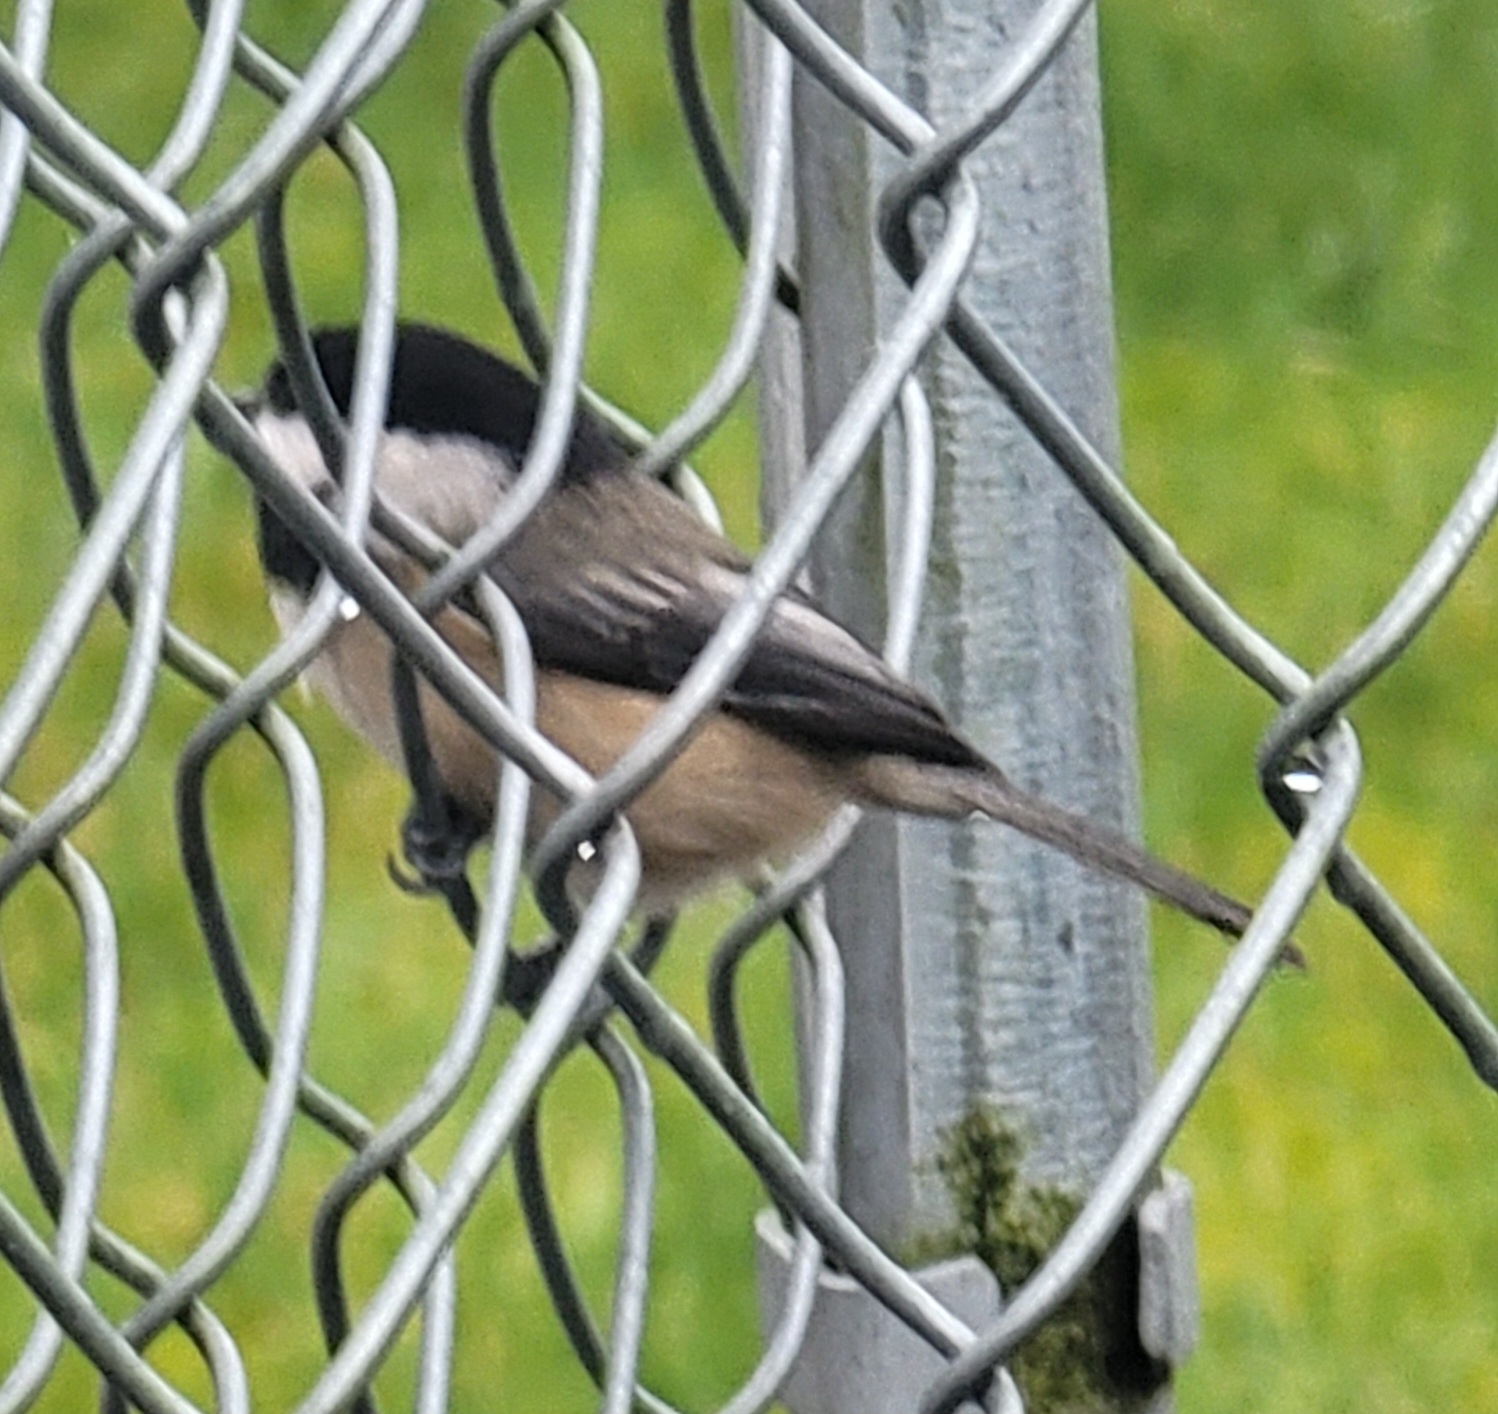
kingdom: Animalia
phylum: Chordata
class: Aves
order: Passeriformes
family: Paridae
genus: Poecile
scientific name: Poecile atricapillus
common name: Black-capped chickadee
